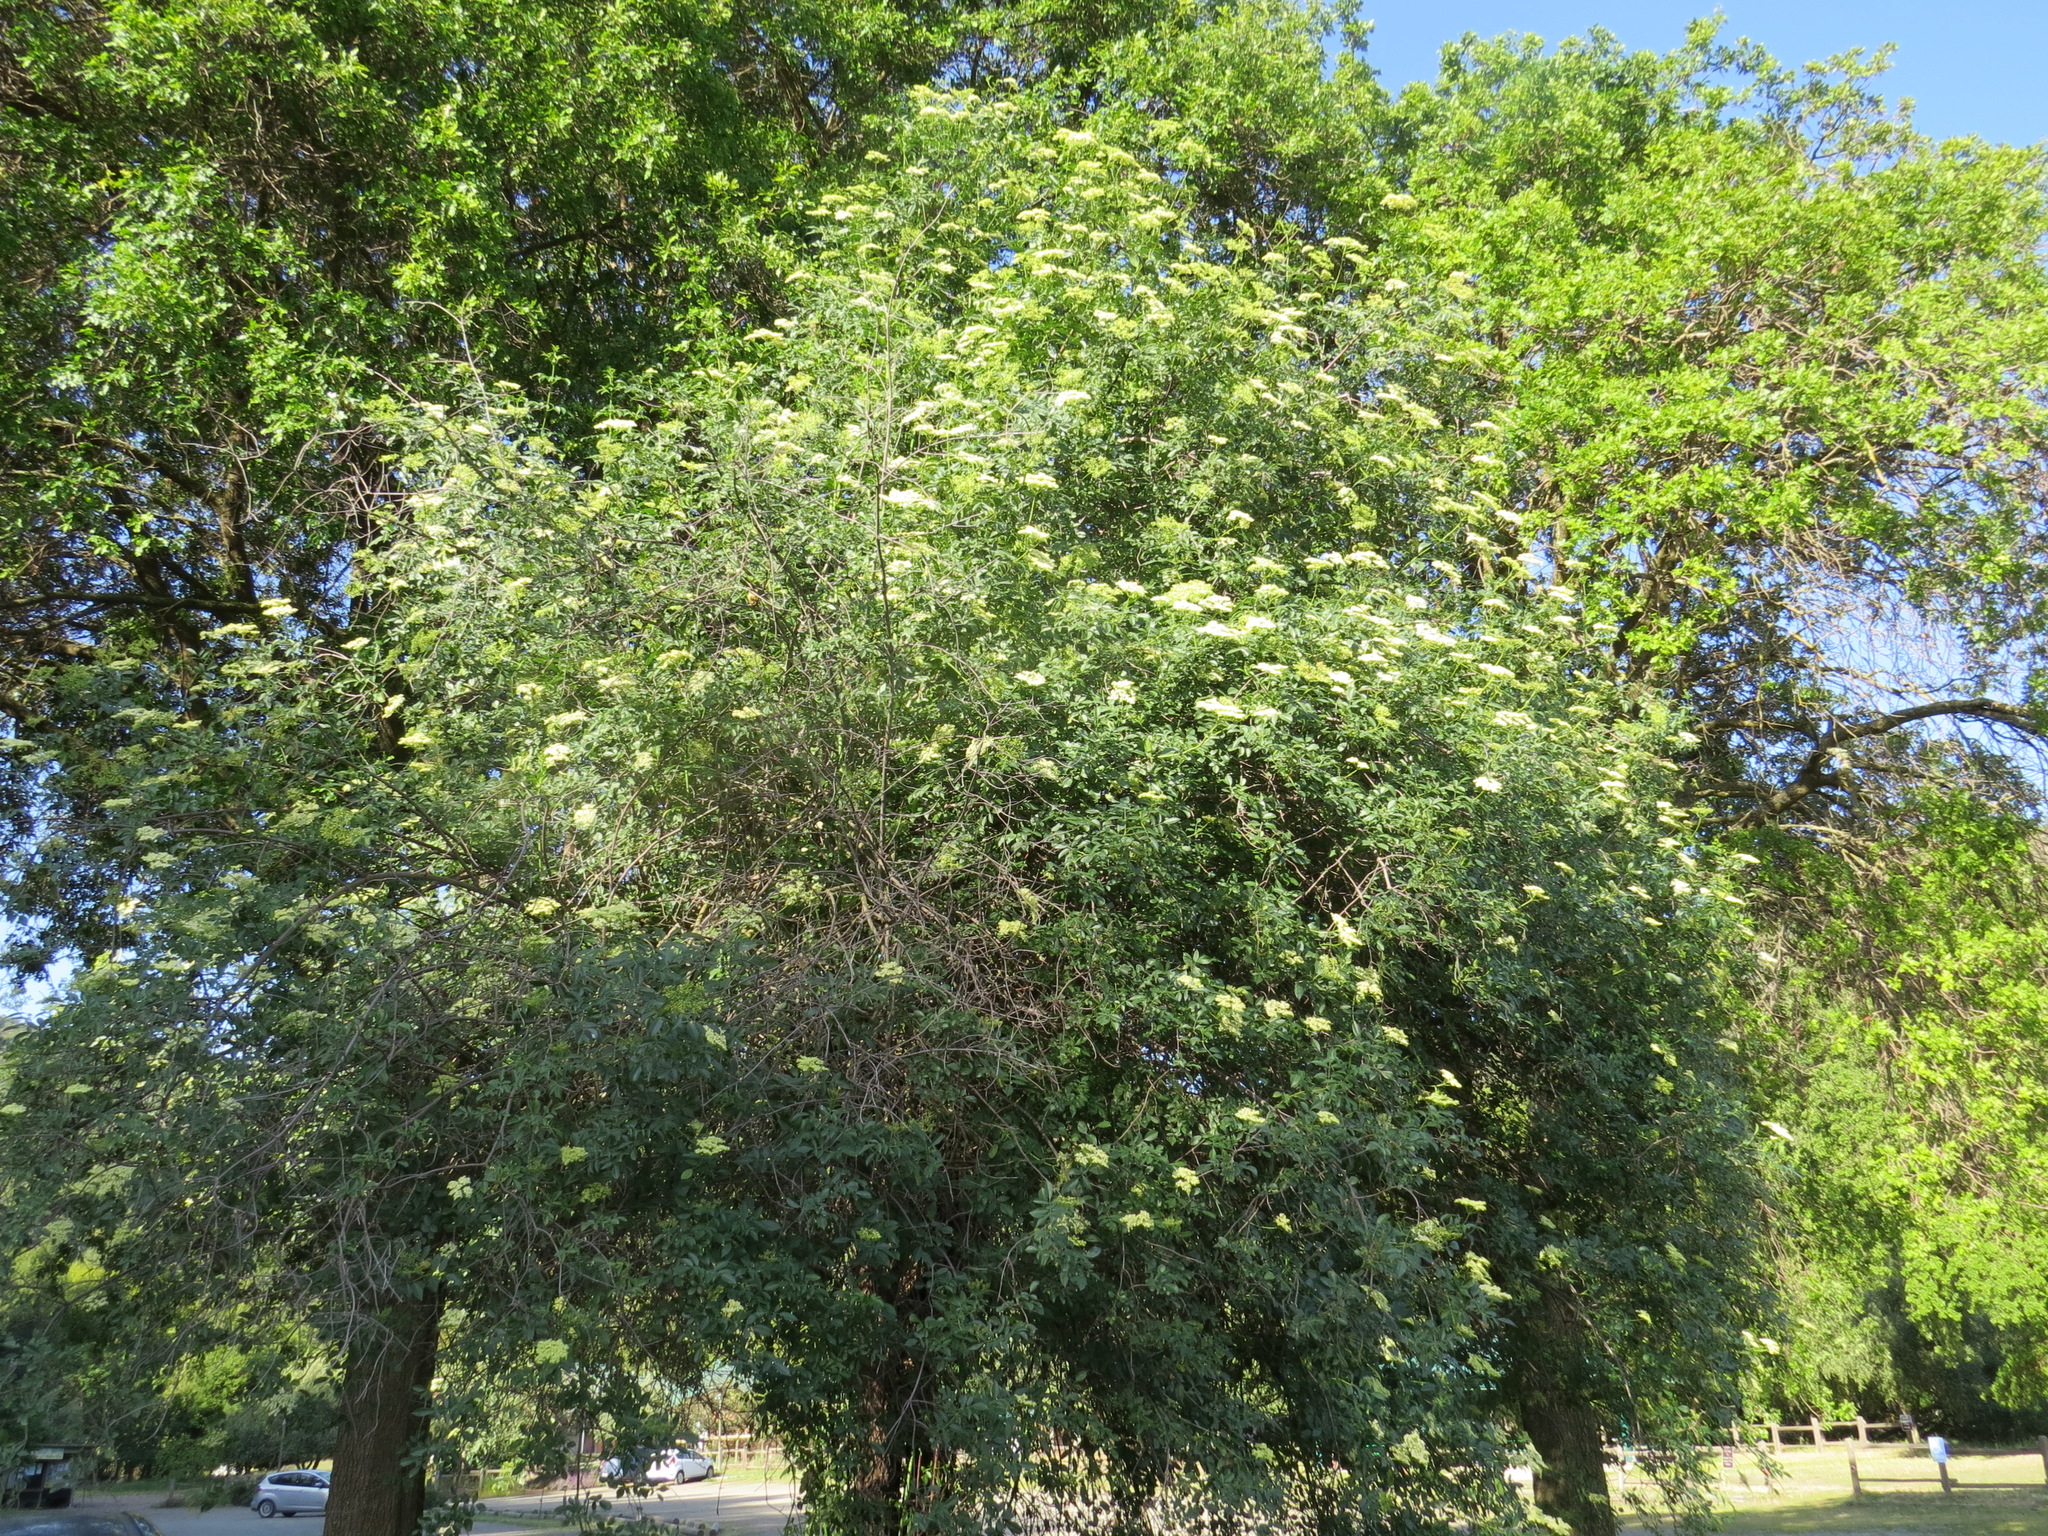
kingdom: Plantae
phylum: Tracheophyta
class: Magnoliopsida
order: Dipsacales
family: Viburnaceae
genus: Sambucus
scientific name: Sambucus cerulea
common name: Blue elder
